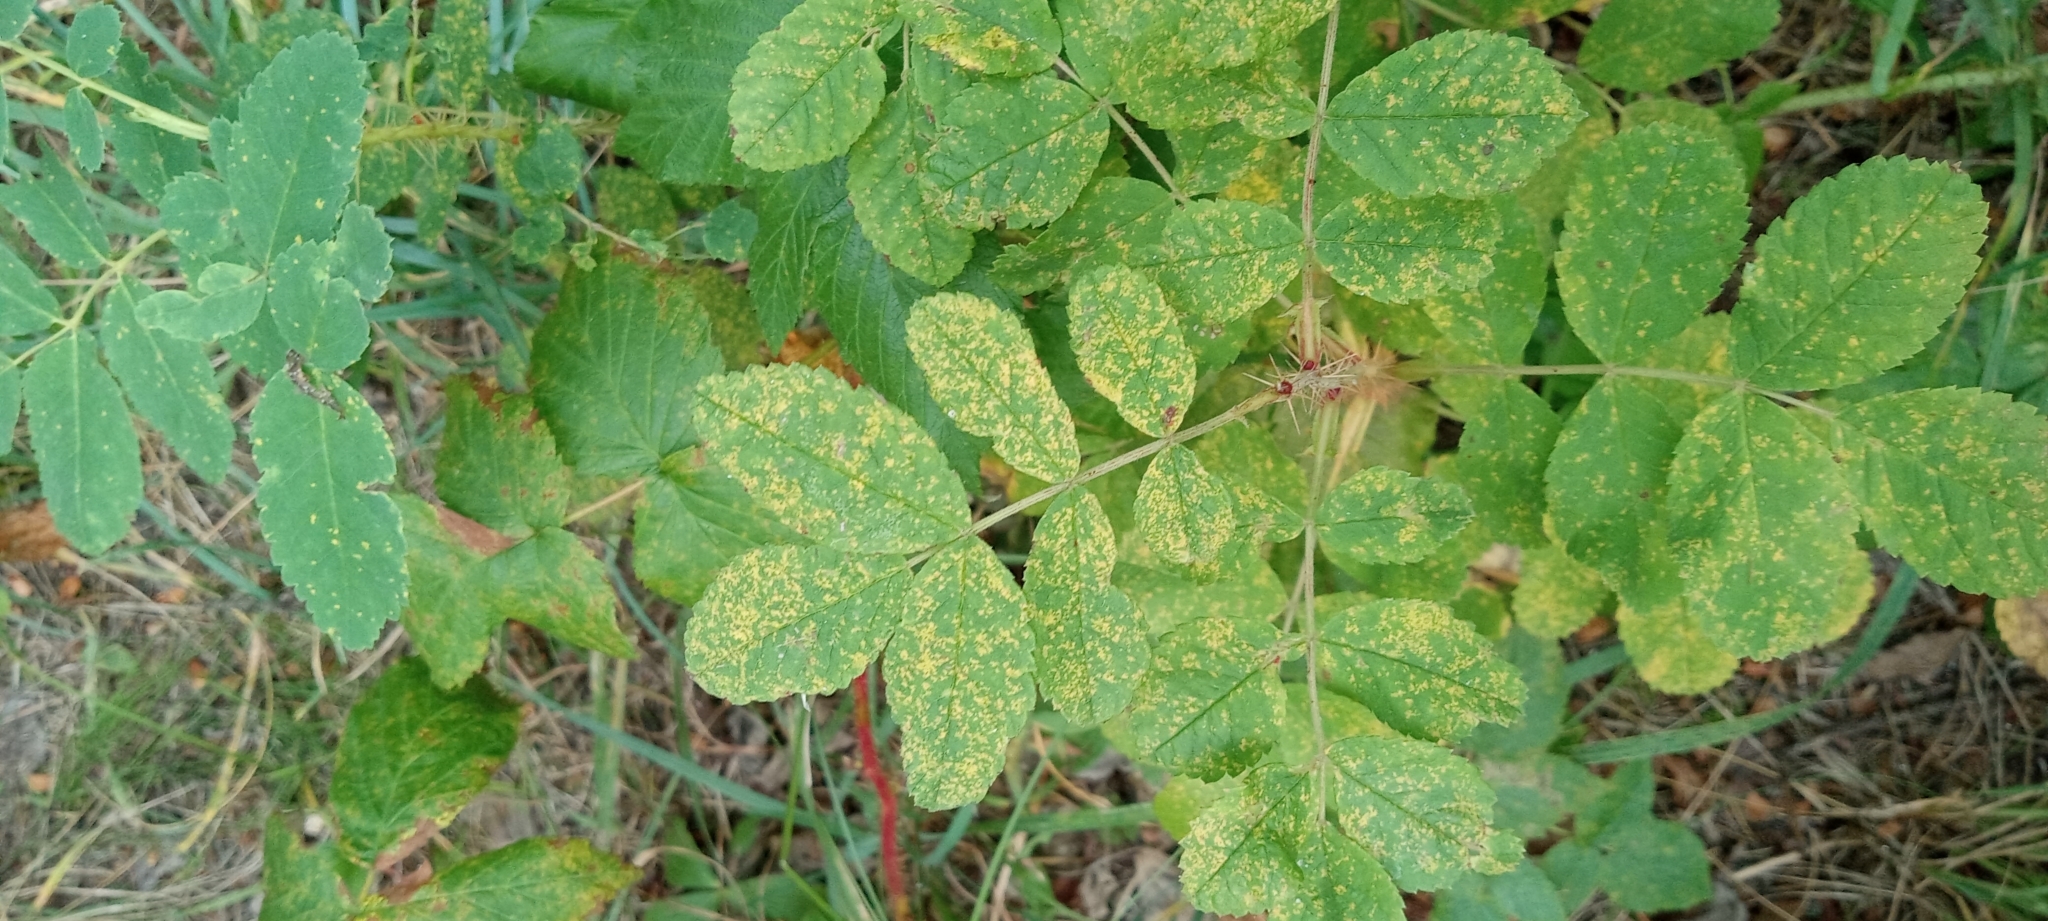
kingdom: Plantae
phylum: Tracheophyta
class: Magnoliopsida
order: Rosales
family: Rosaceae
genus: Rosa
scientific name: Rosa acicularis
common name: Prickly rose
